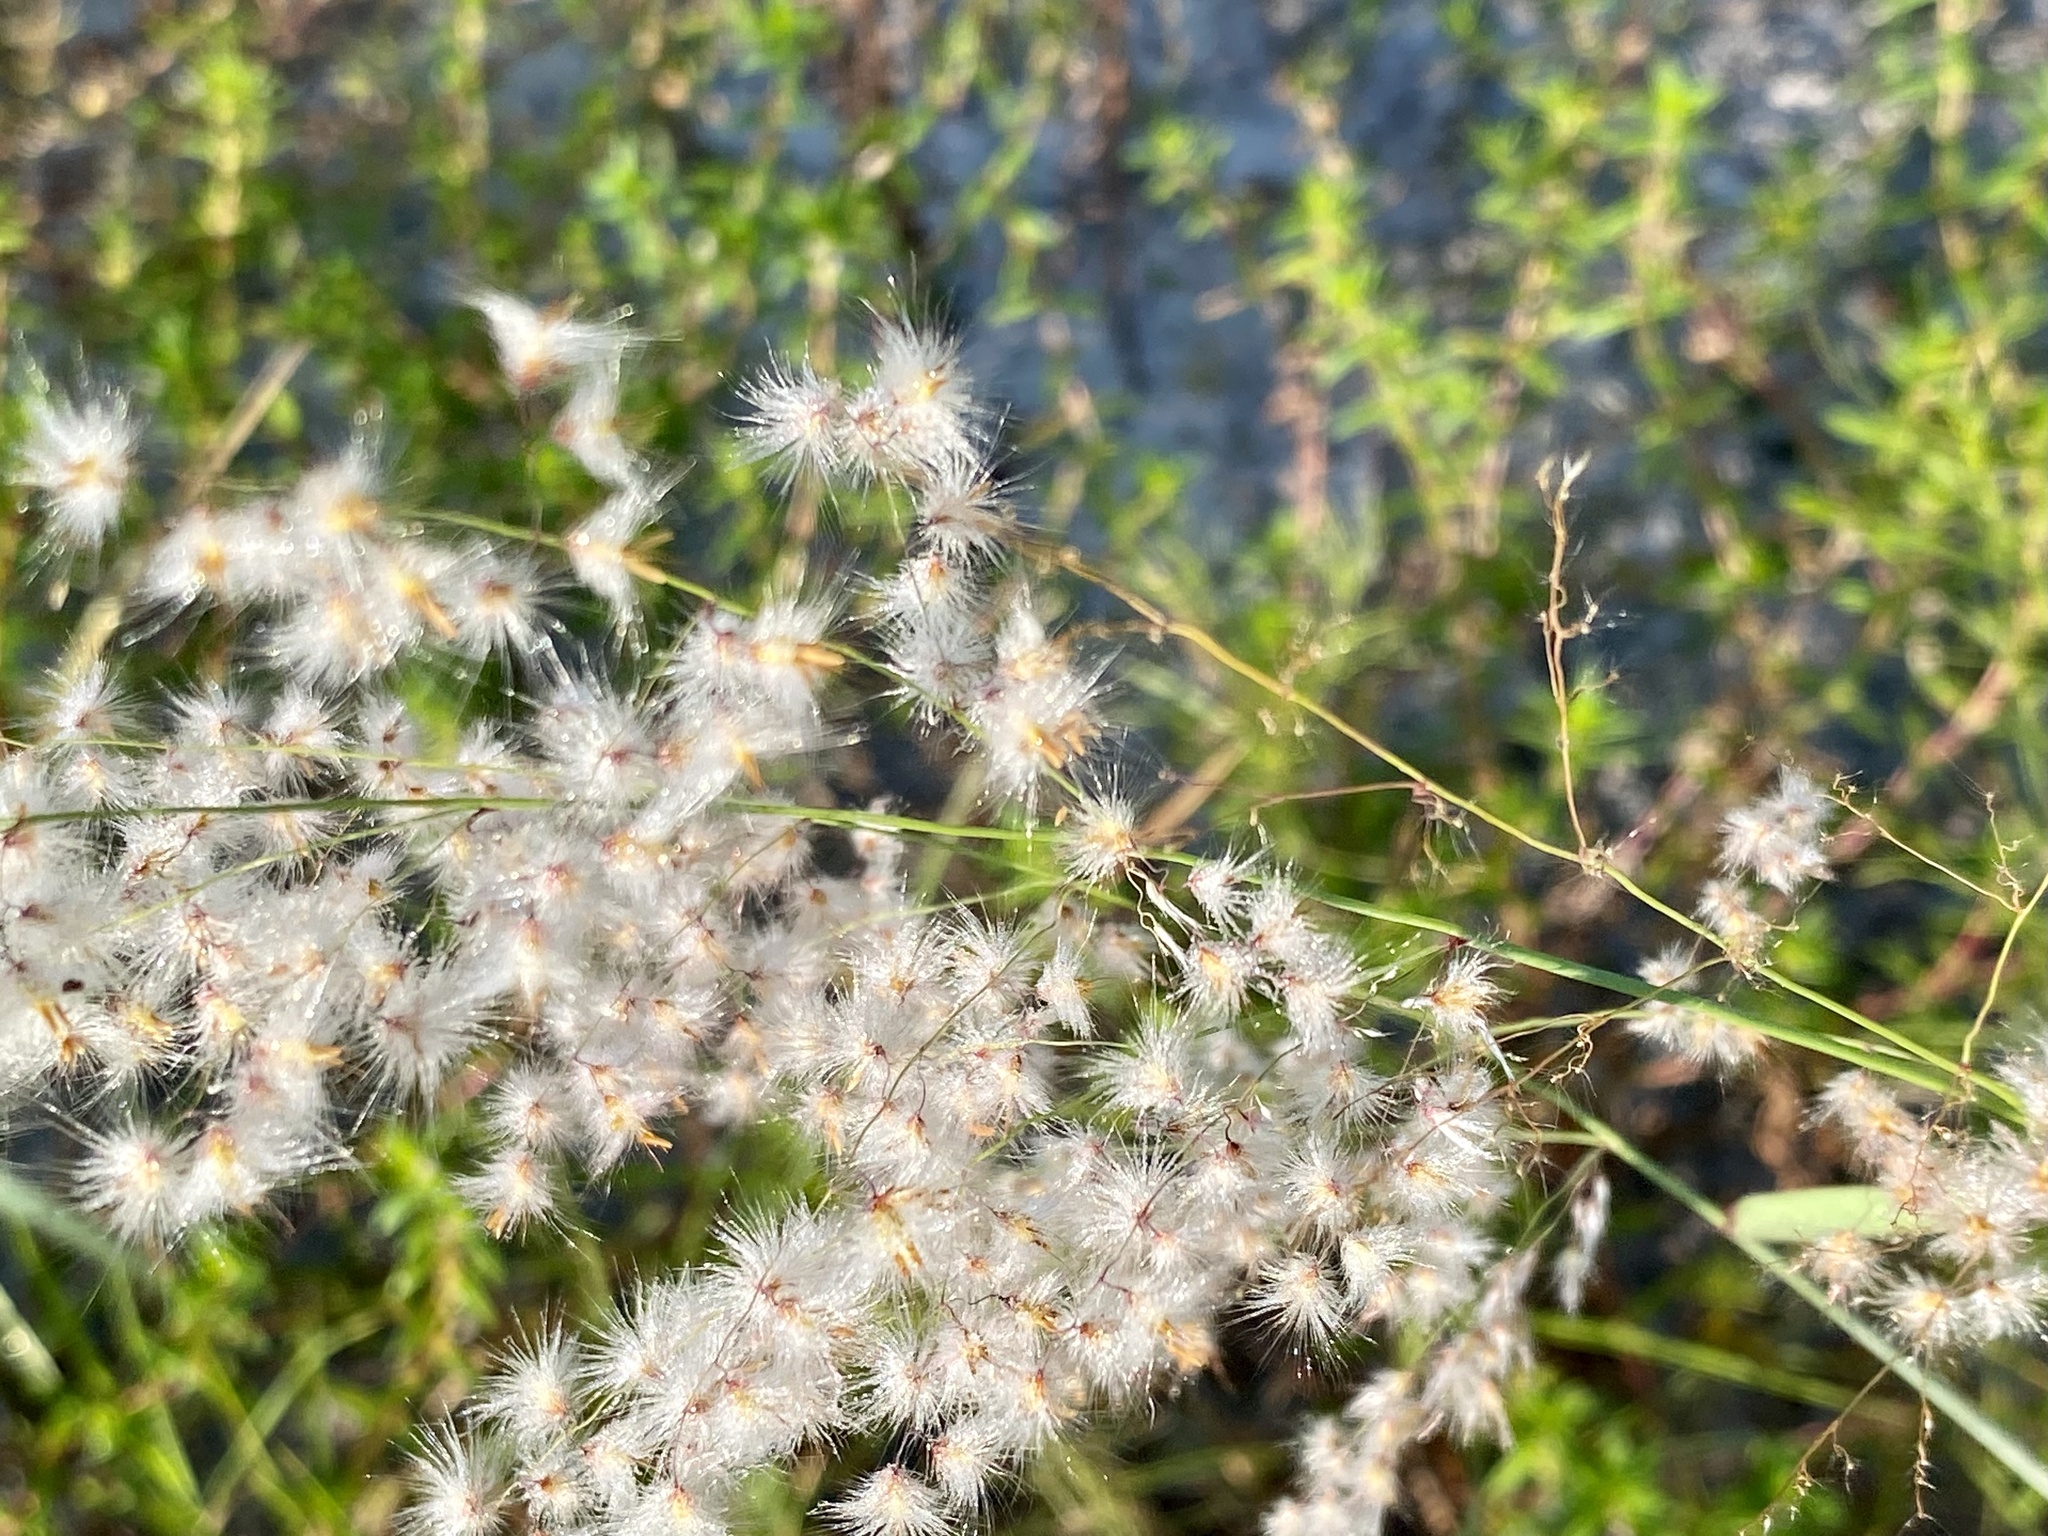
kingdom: Plantae
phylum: Tracheophyta
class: Liliopsida
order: Poales
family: Poaceae
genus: Melinis
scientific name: Melinis repens
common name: Rose natal grass
